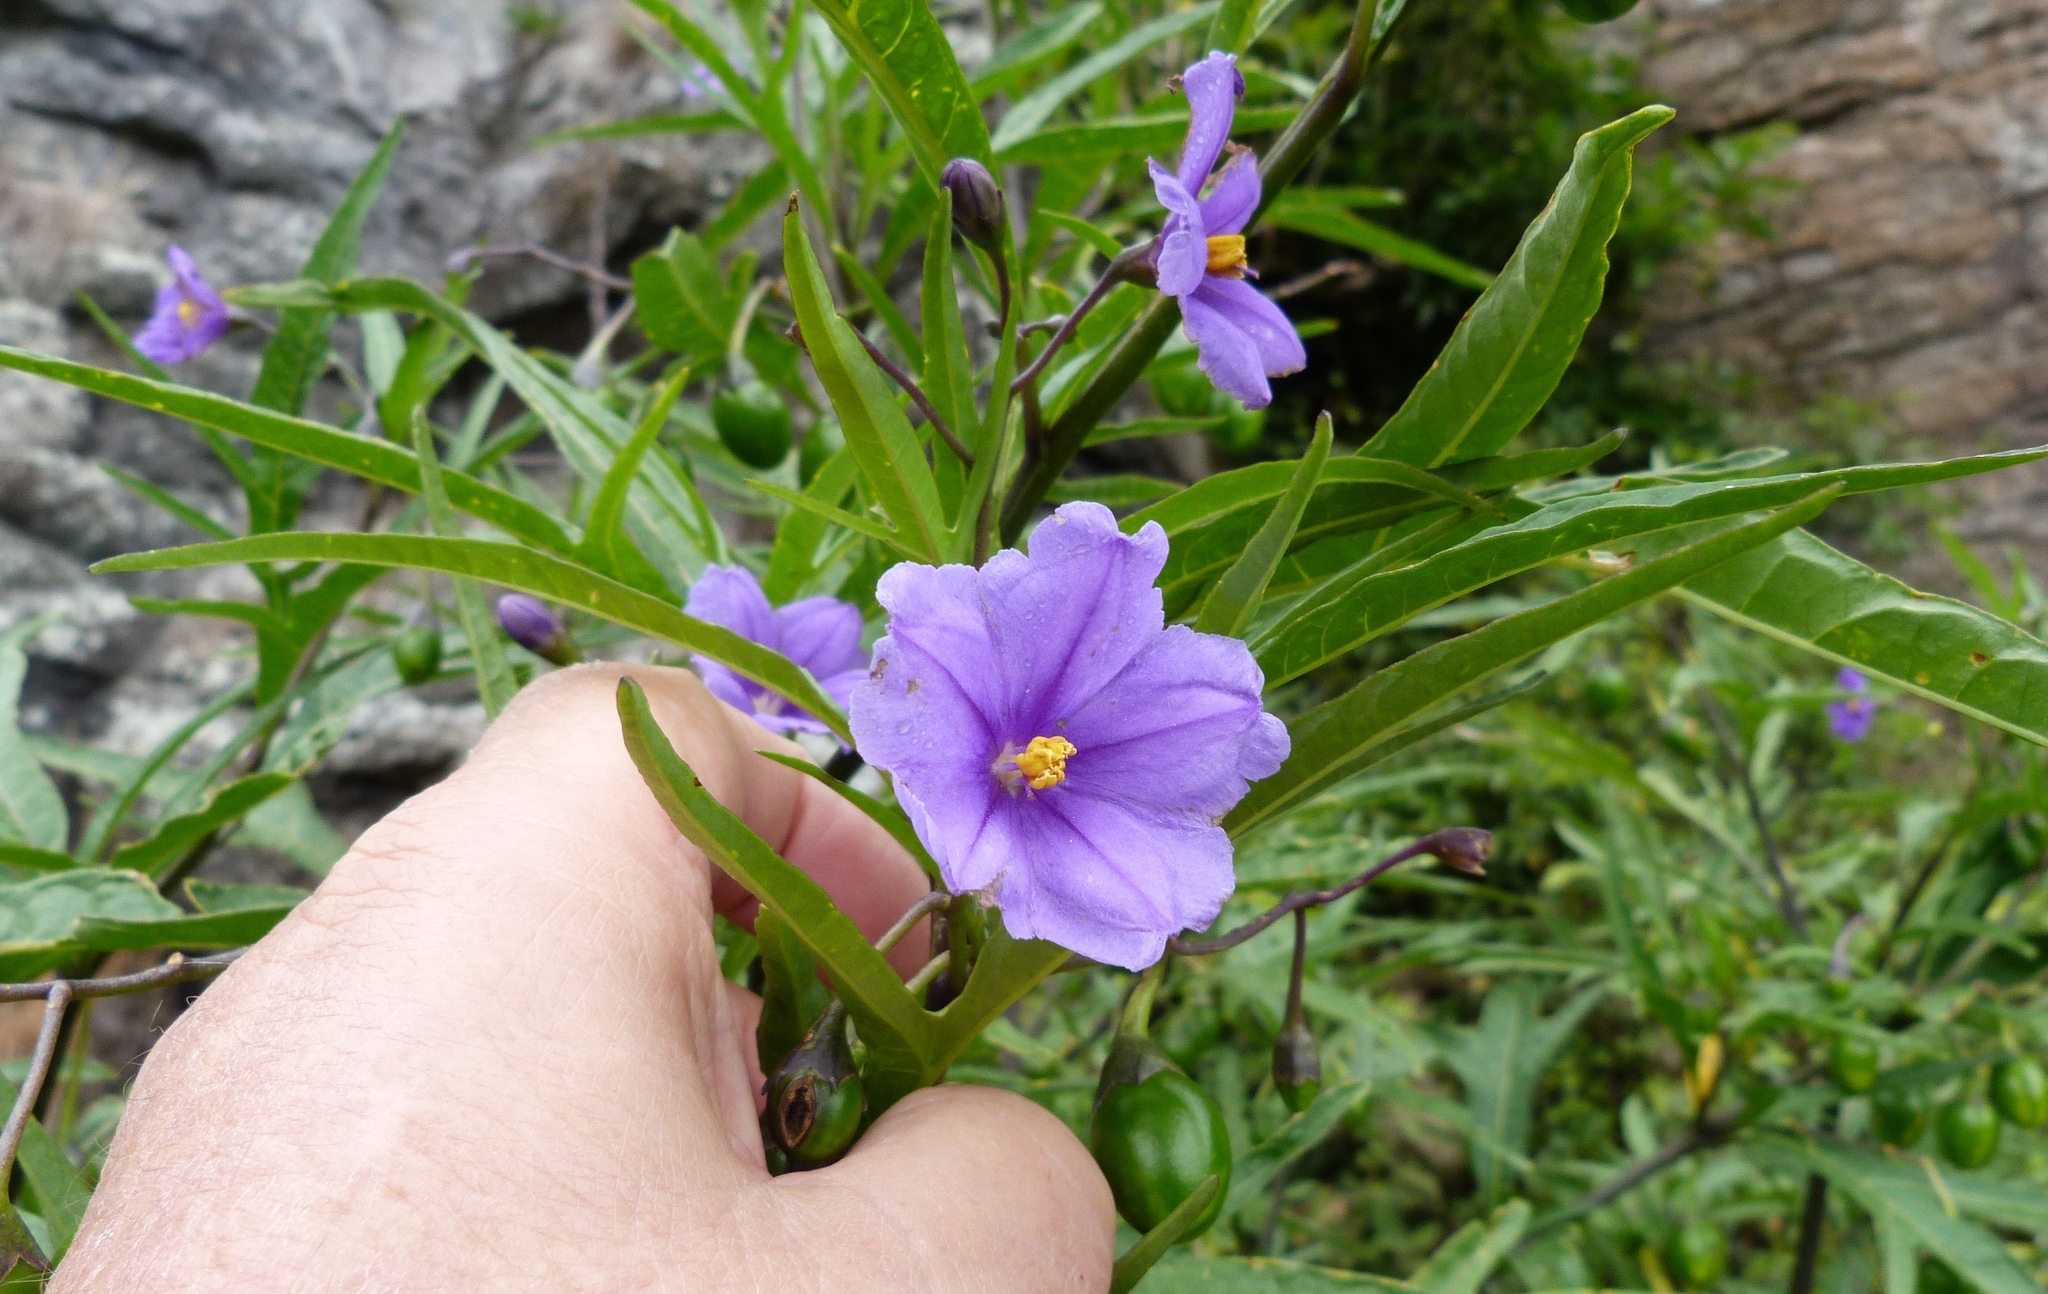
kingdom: Plantae
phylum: Tracheophyta
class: Magnoliopsida
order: Solanales
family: Solanaceae
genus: Solanum
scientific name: Solanum laciniatum
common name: Kangaroo-apple
